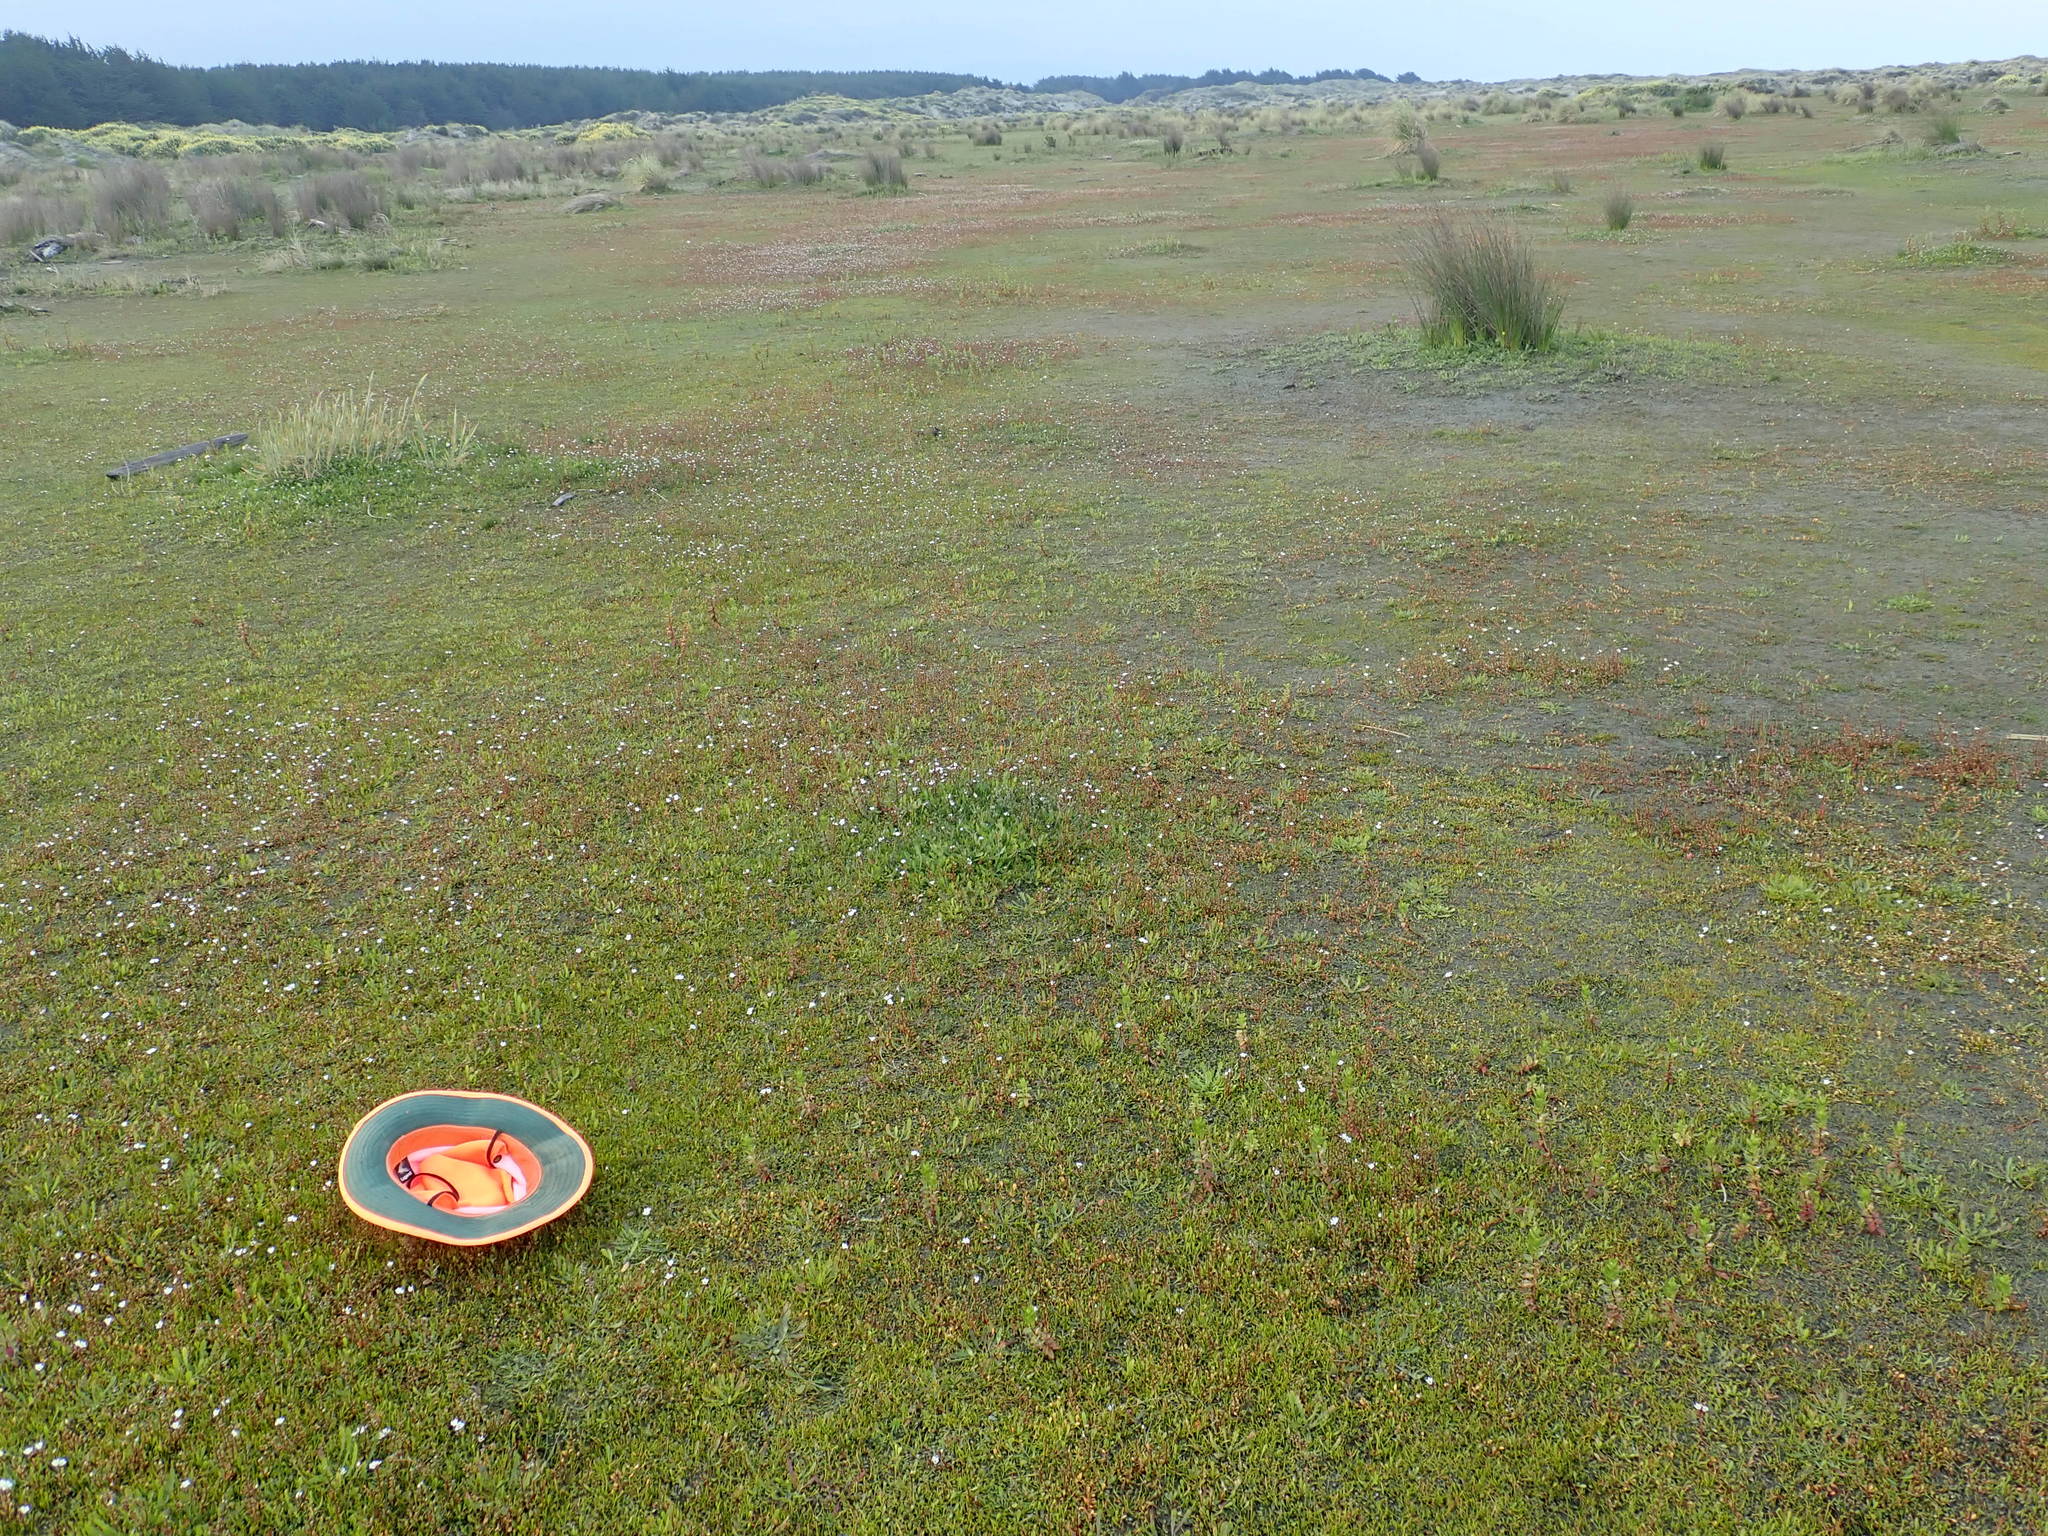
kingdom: Plantae
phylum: Tracheophyta
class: Magnoliopsida
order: Apiales
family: Apiaceae
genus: Lilaeopsis
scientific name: Lilaeopsis novae-zelandiae
